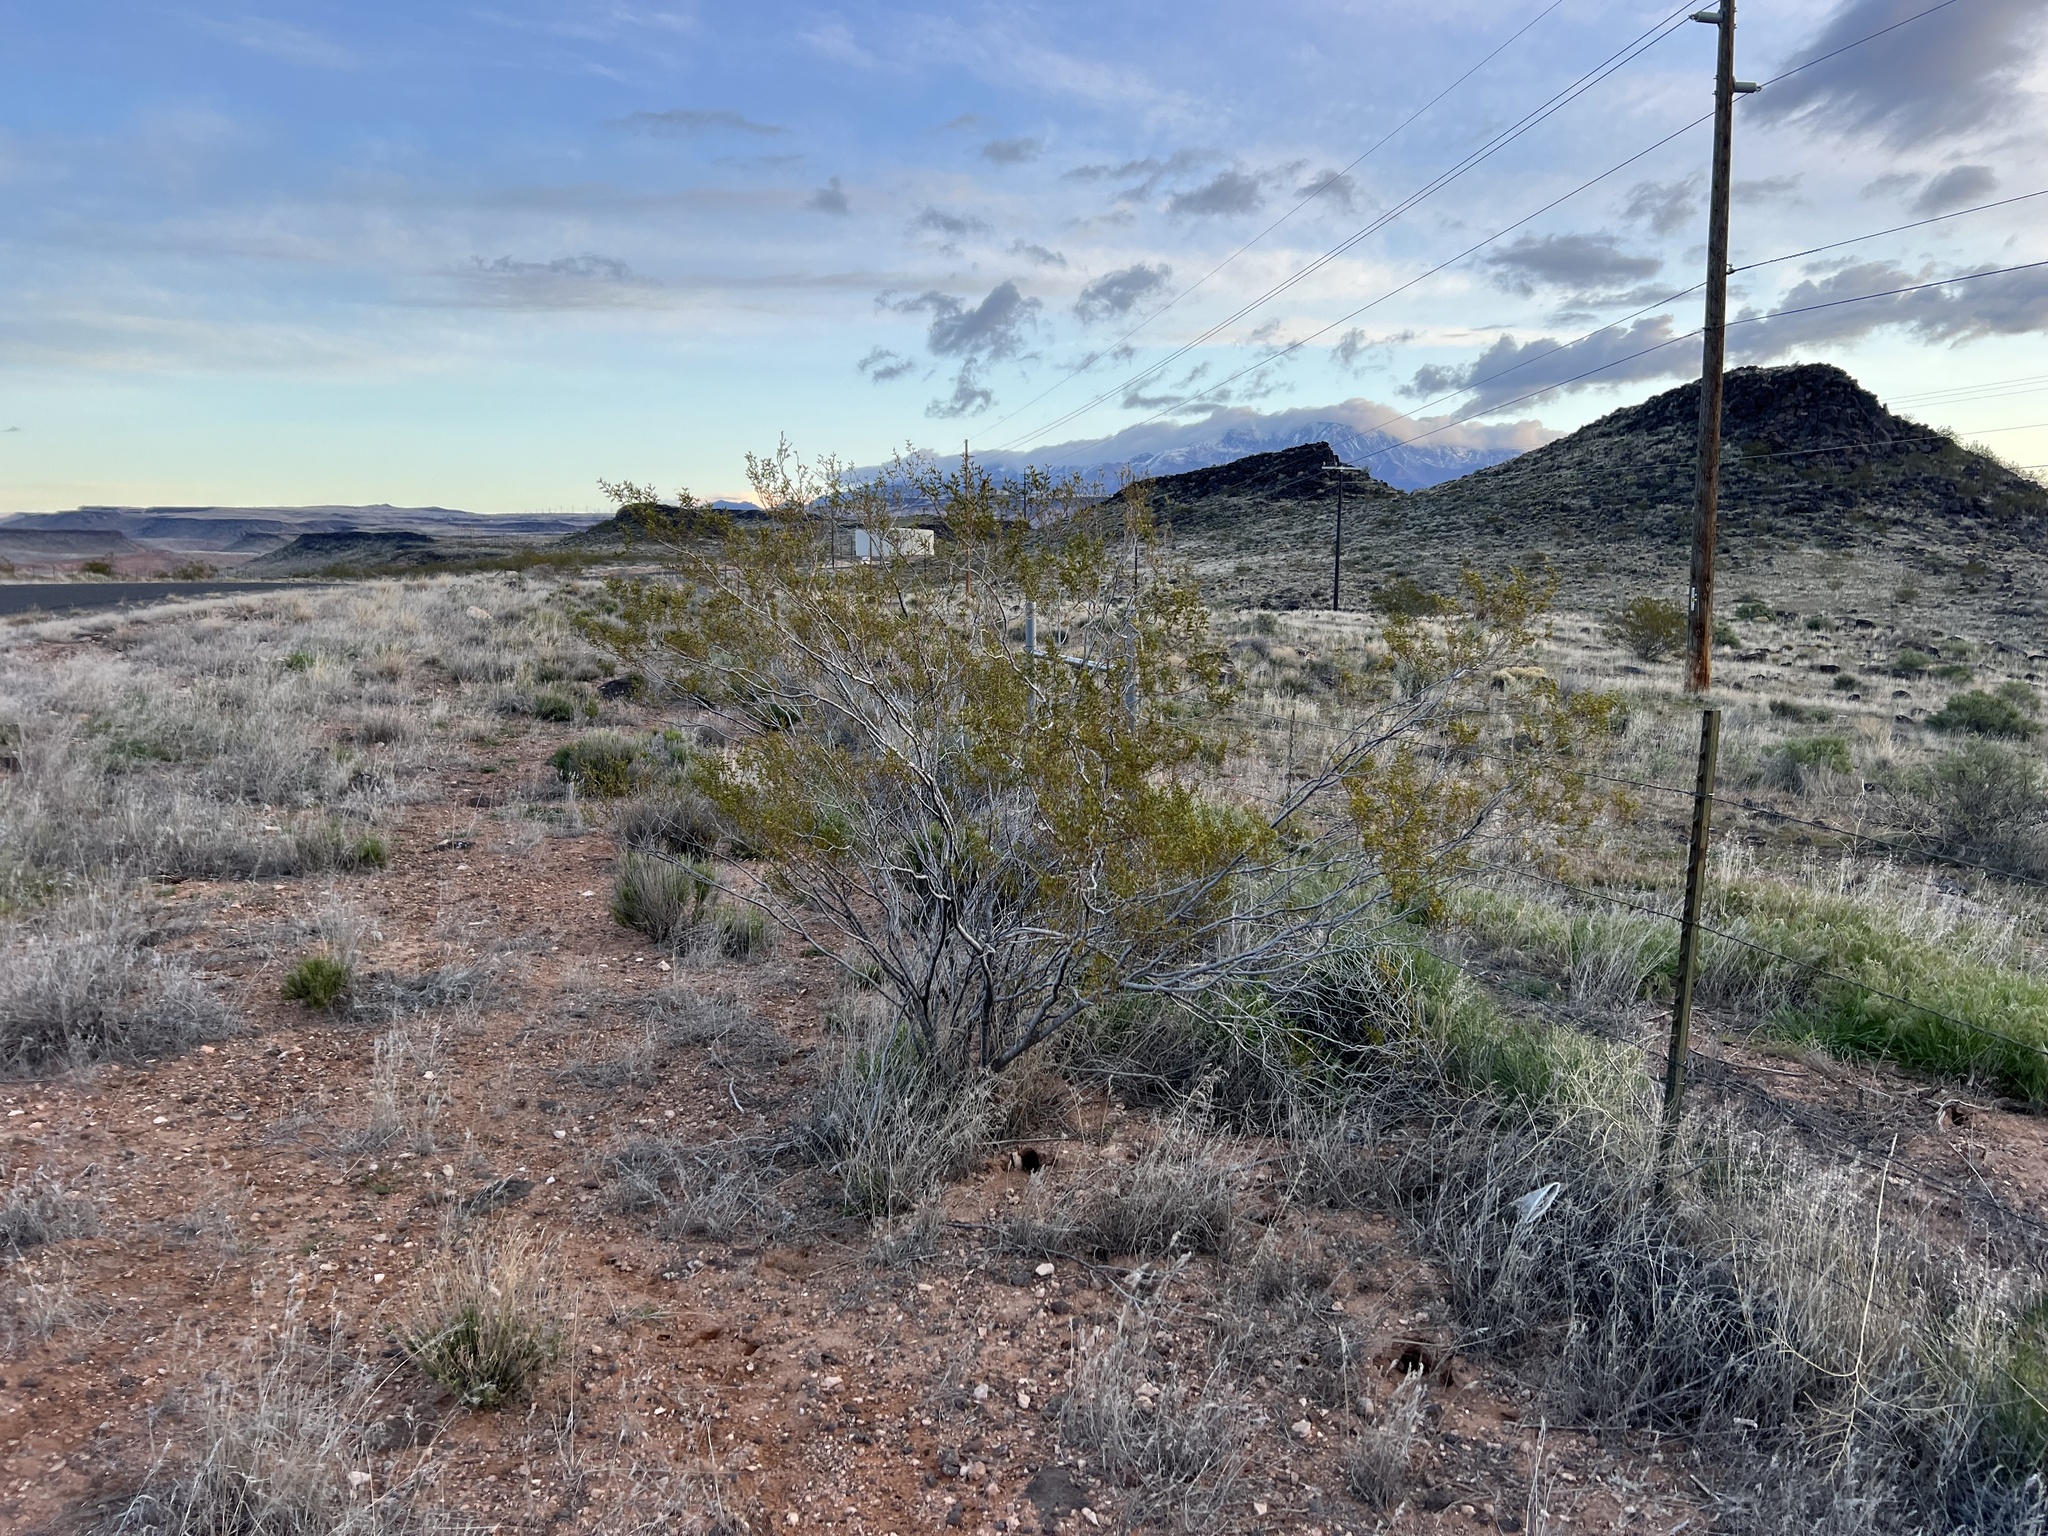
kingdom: Plantae
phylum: Tracheophyta
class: Magnoliopsida
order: Zygophyllales
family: Zygophyllaceae
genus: Larrea
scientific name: Larrea tridentata
